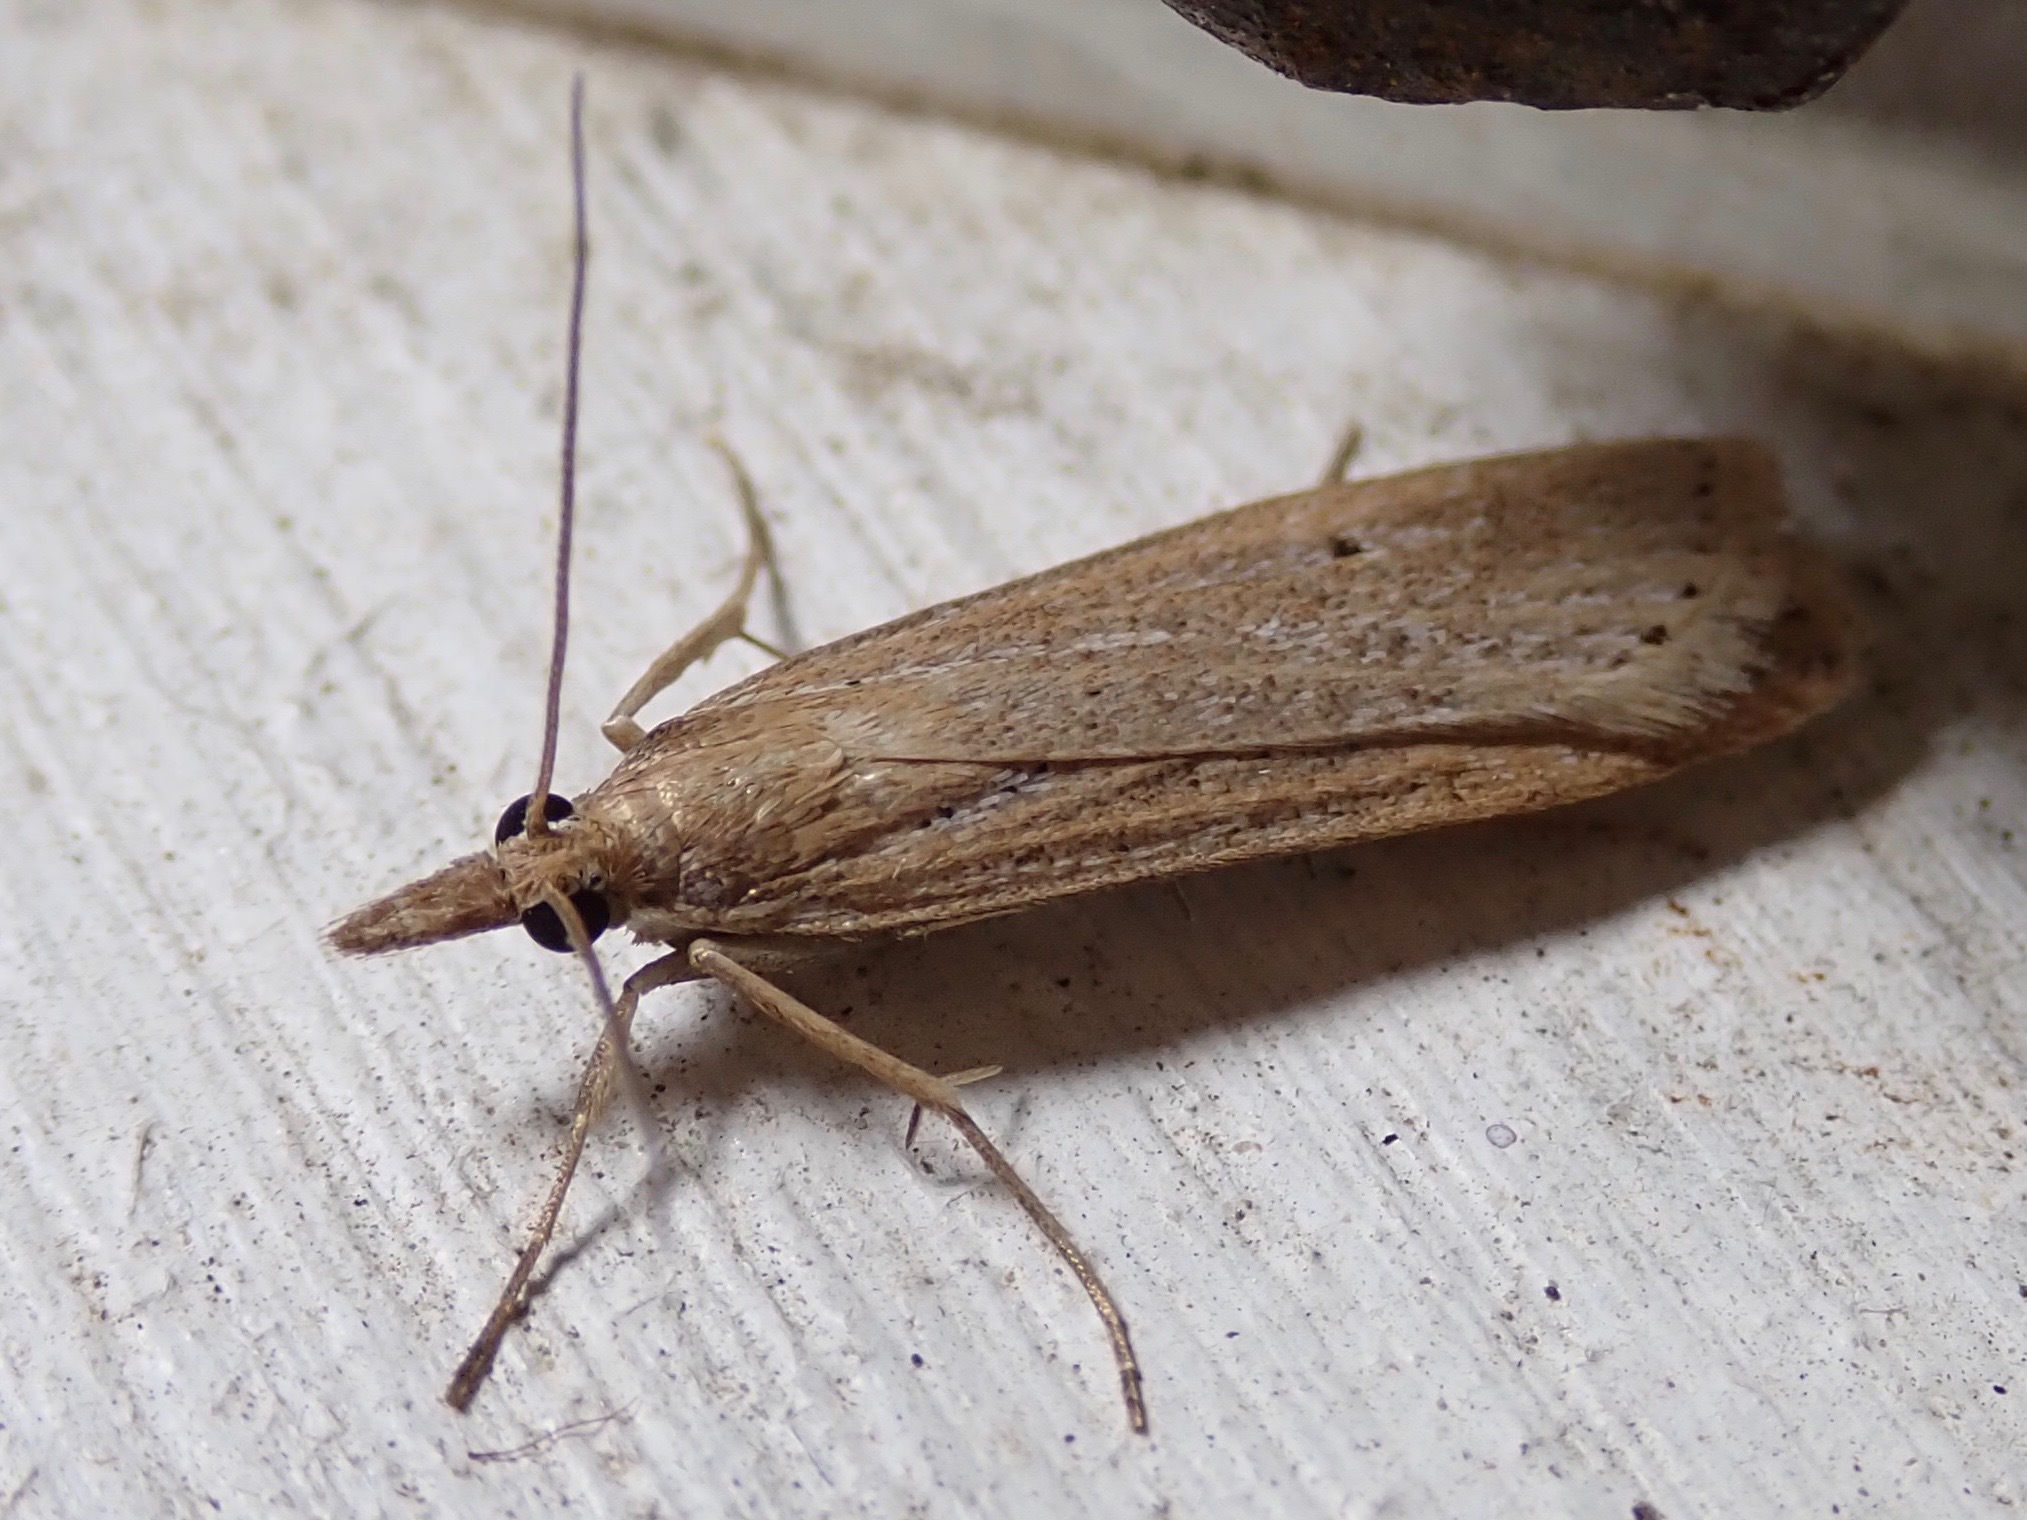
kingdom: Animalia
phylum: Arthropoda
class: Insecta
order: Lepidoptera
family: Crambidae
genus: Eudonia
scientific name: Eudonia sabulosella
